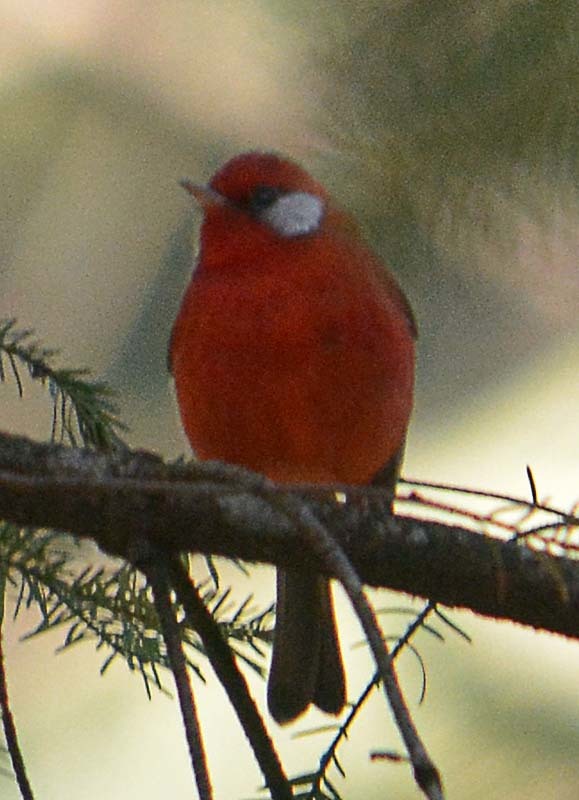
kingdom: Animalia
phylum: Chordata
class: Aves
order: Passeriformes
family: Parulidae
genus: Cardellina
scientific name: Cardellina rubra
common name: Red warbler
